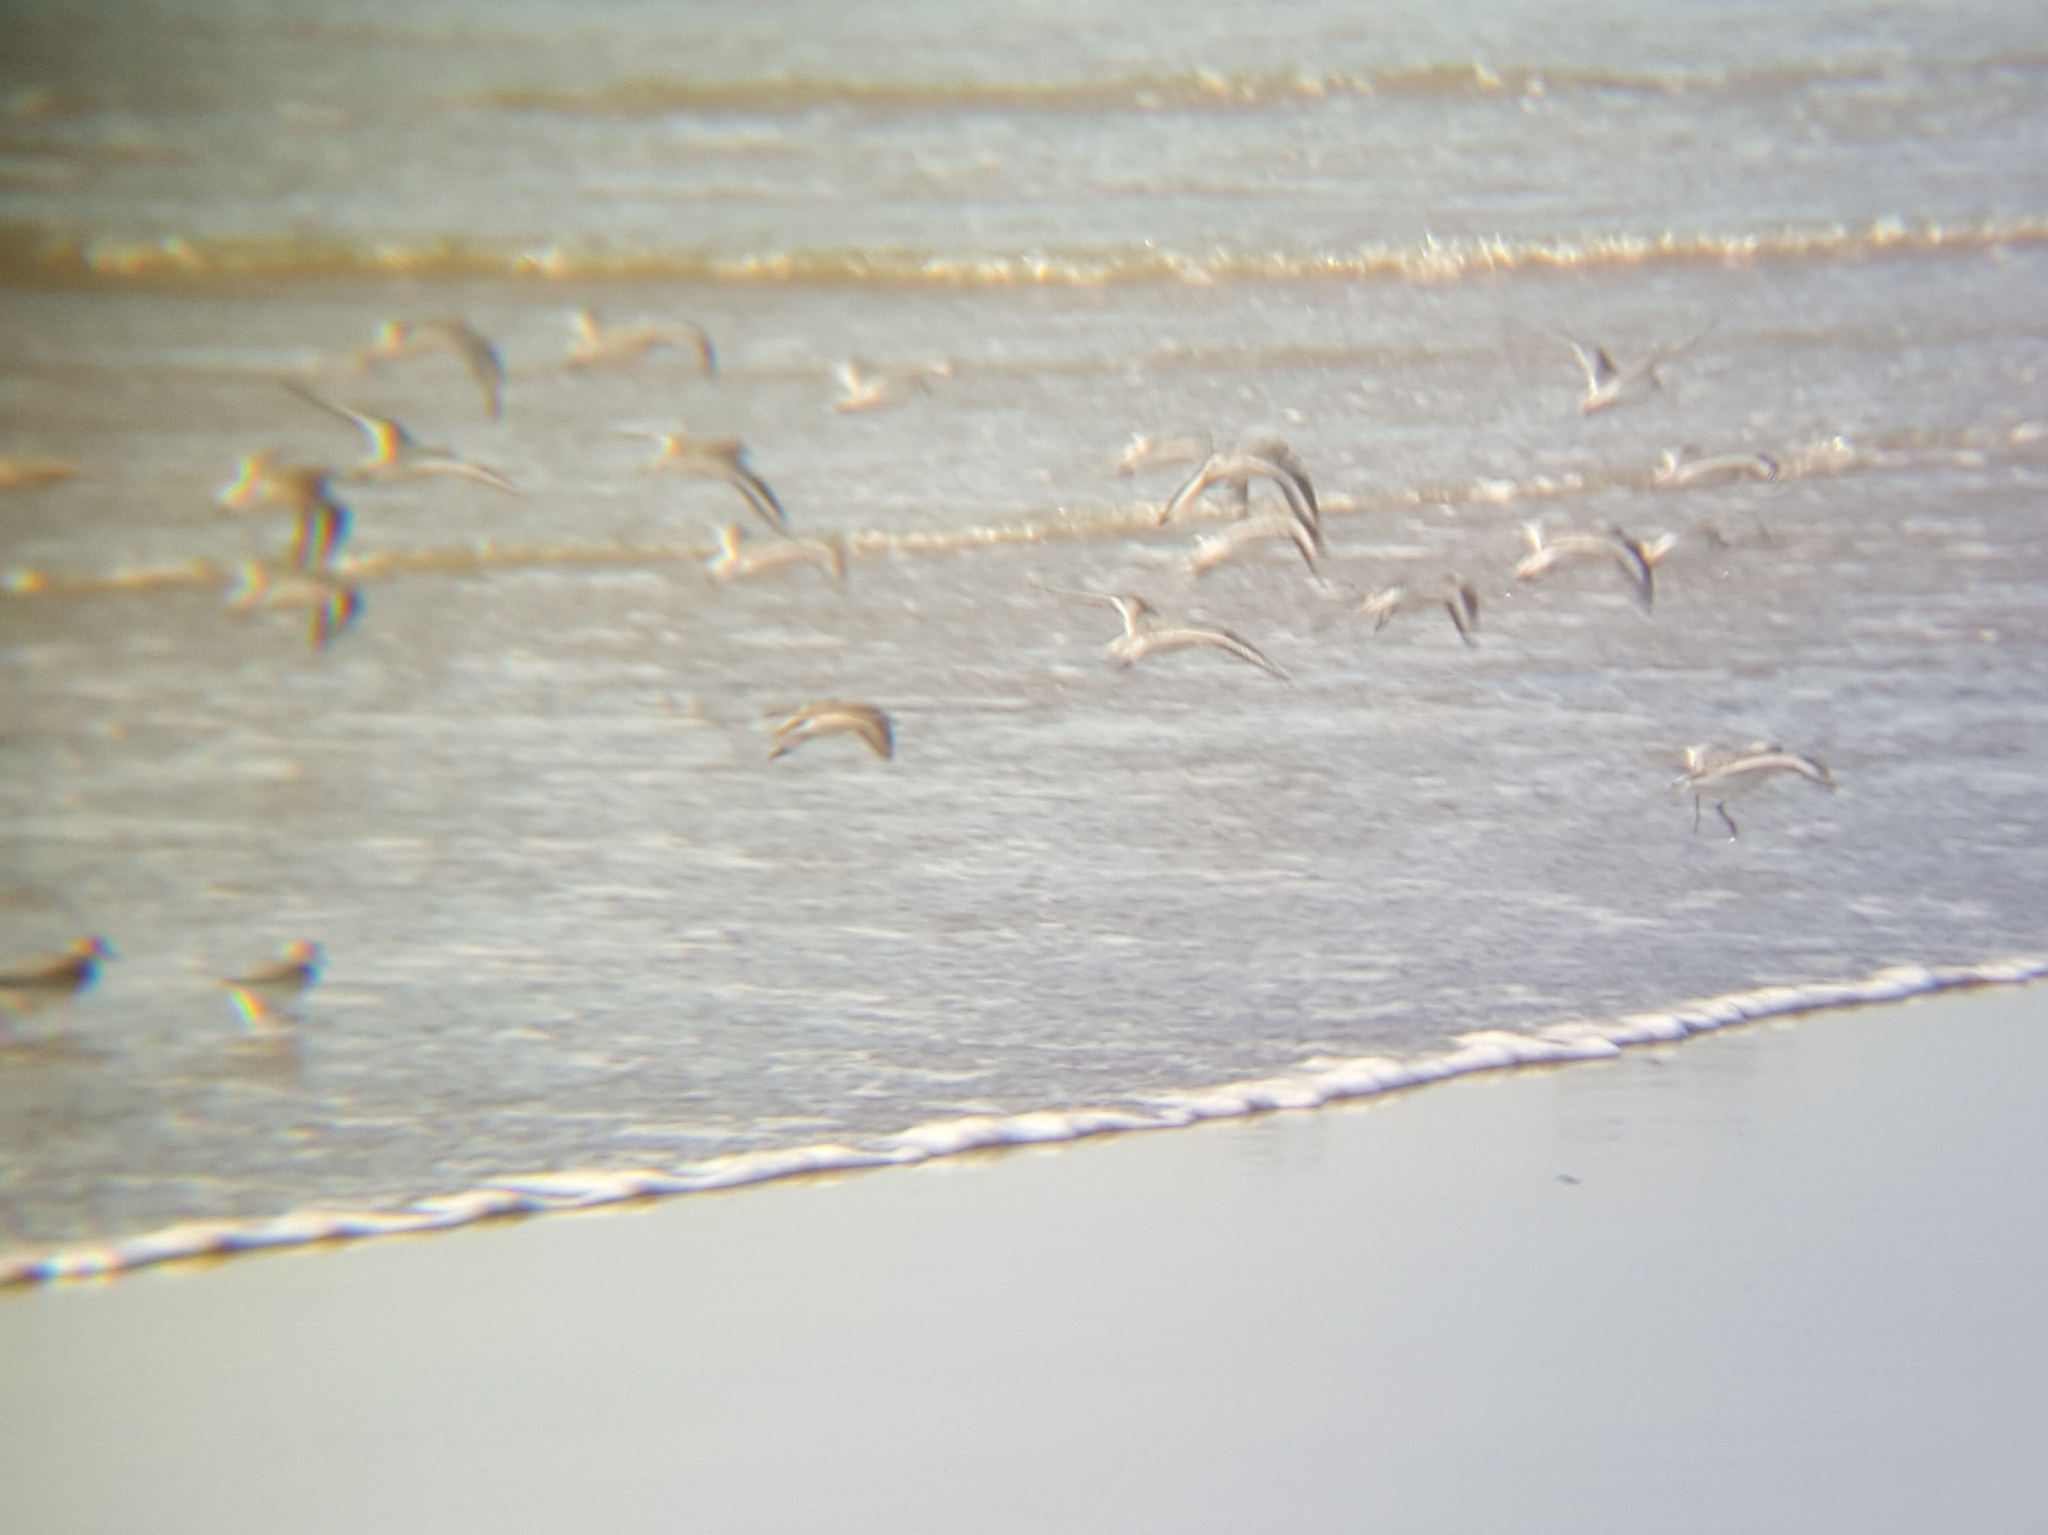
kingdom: Animalia
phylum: Chordata
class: Aves
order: Charadriiformes
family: Scolopacidae
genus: Calidris
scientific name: Calidris alba
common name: Sanderling
